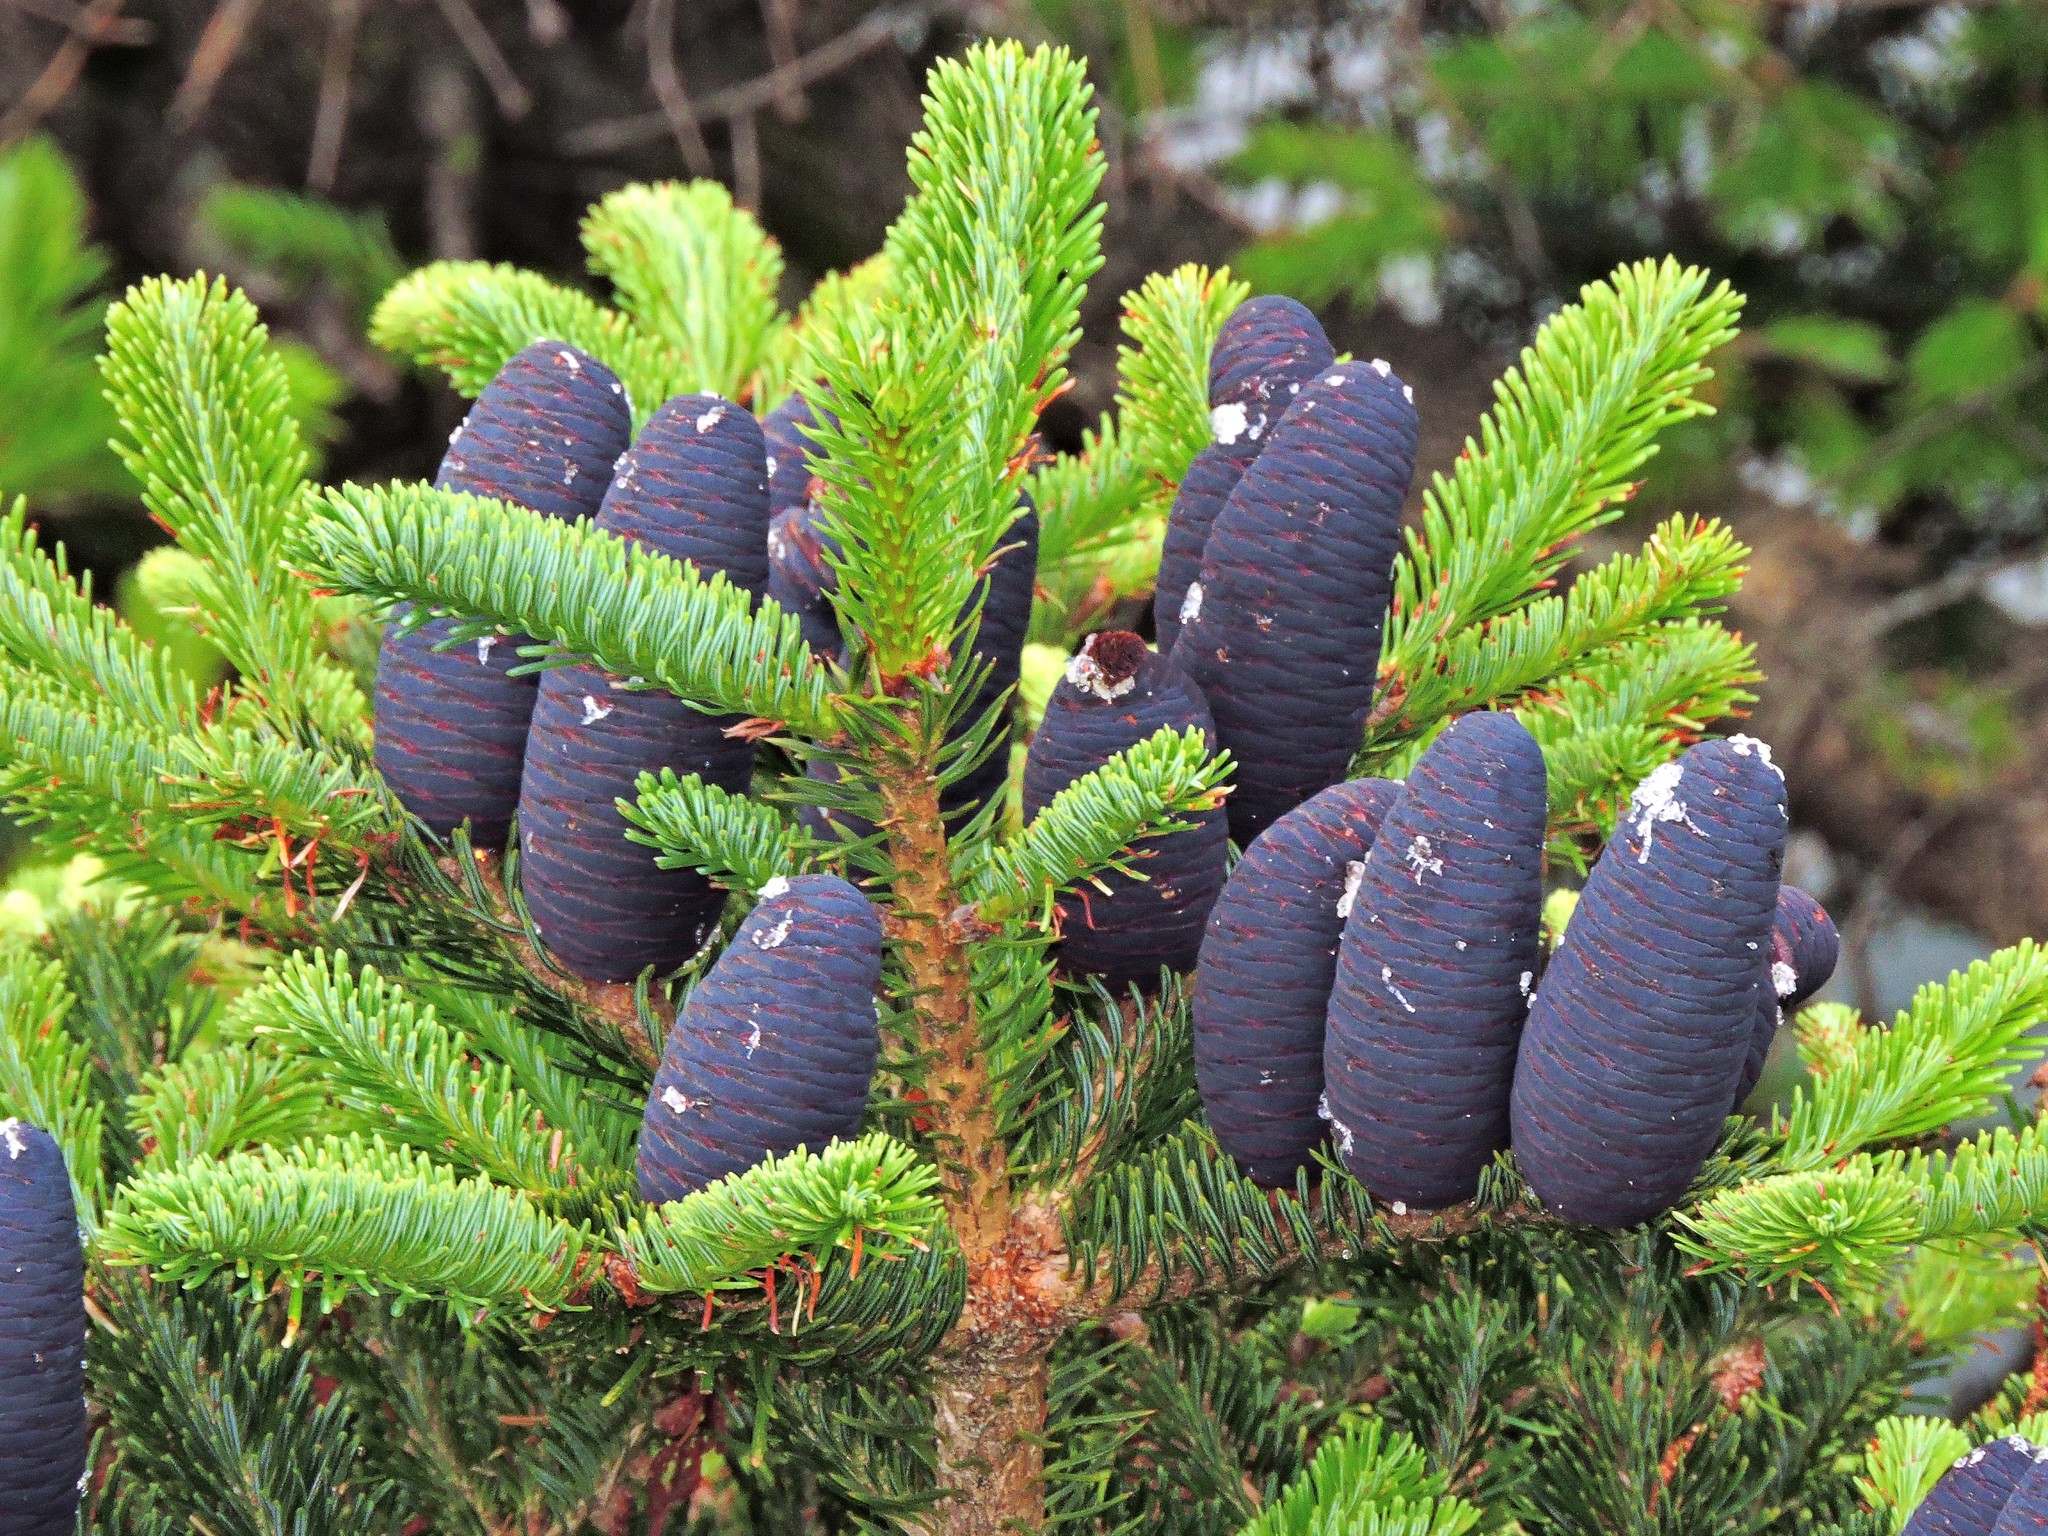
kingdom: Plantae
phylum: Tracheophyta
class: Pinopsida
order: Pinales
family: Pinaceae
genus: Abies
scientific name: Abies kawakamii
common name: Taiwan fir
